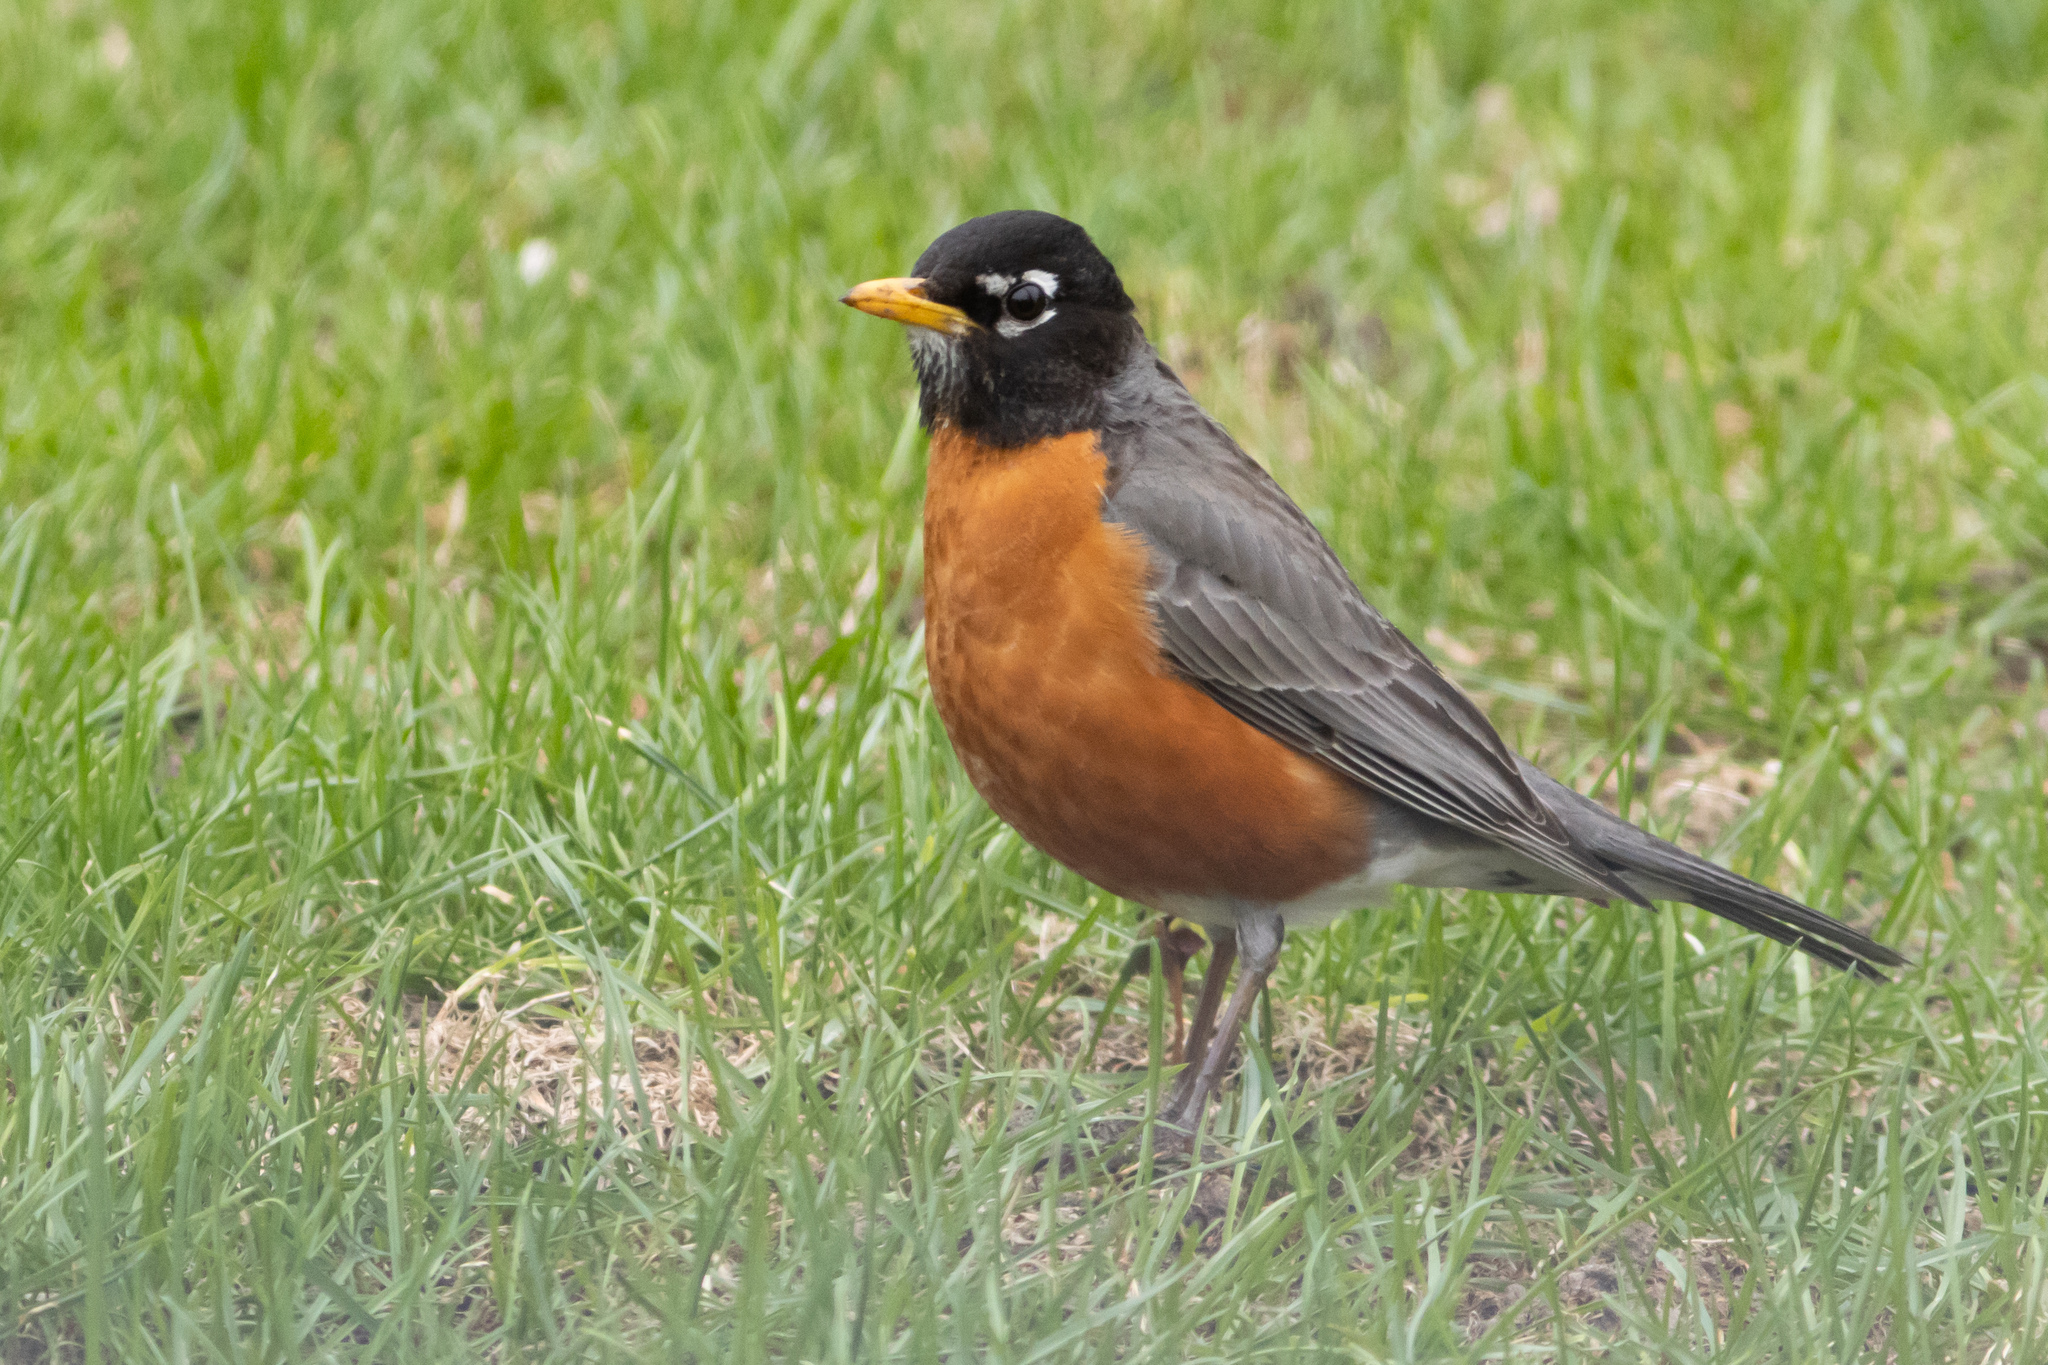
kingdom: Animalia
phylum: Chordata
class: Aves
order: Passeriformes
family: Turdidae
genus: Turdus
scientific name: Turdus migratorius
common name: American robin
